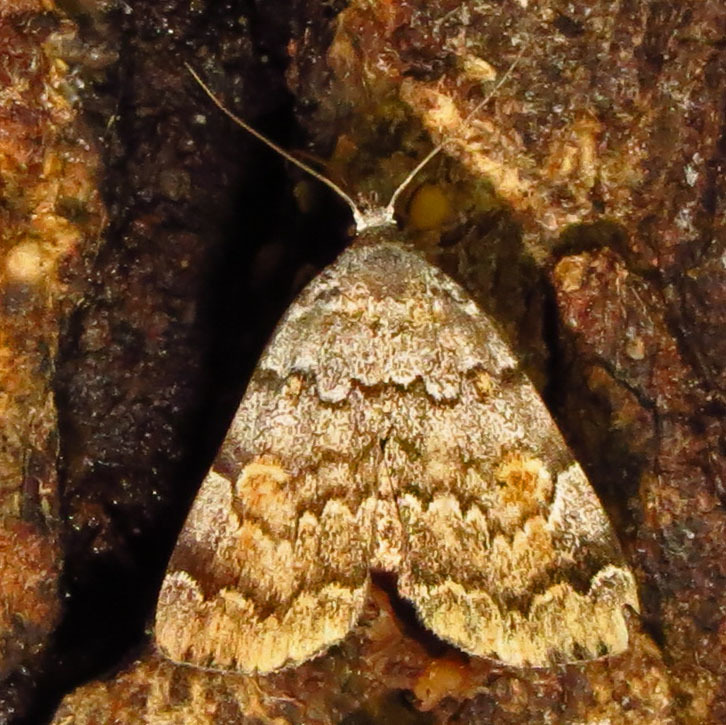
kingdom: Animalia
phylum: Arthropoda
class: Insecta
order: Lepidoptera
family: Erebidae
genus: Idia
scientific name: Idia americalis
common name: American idia moth
